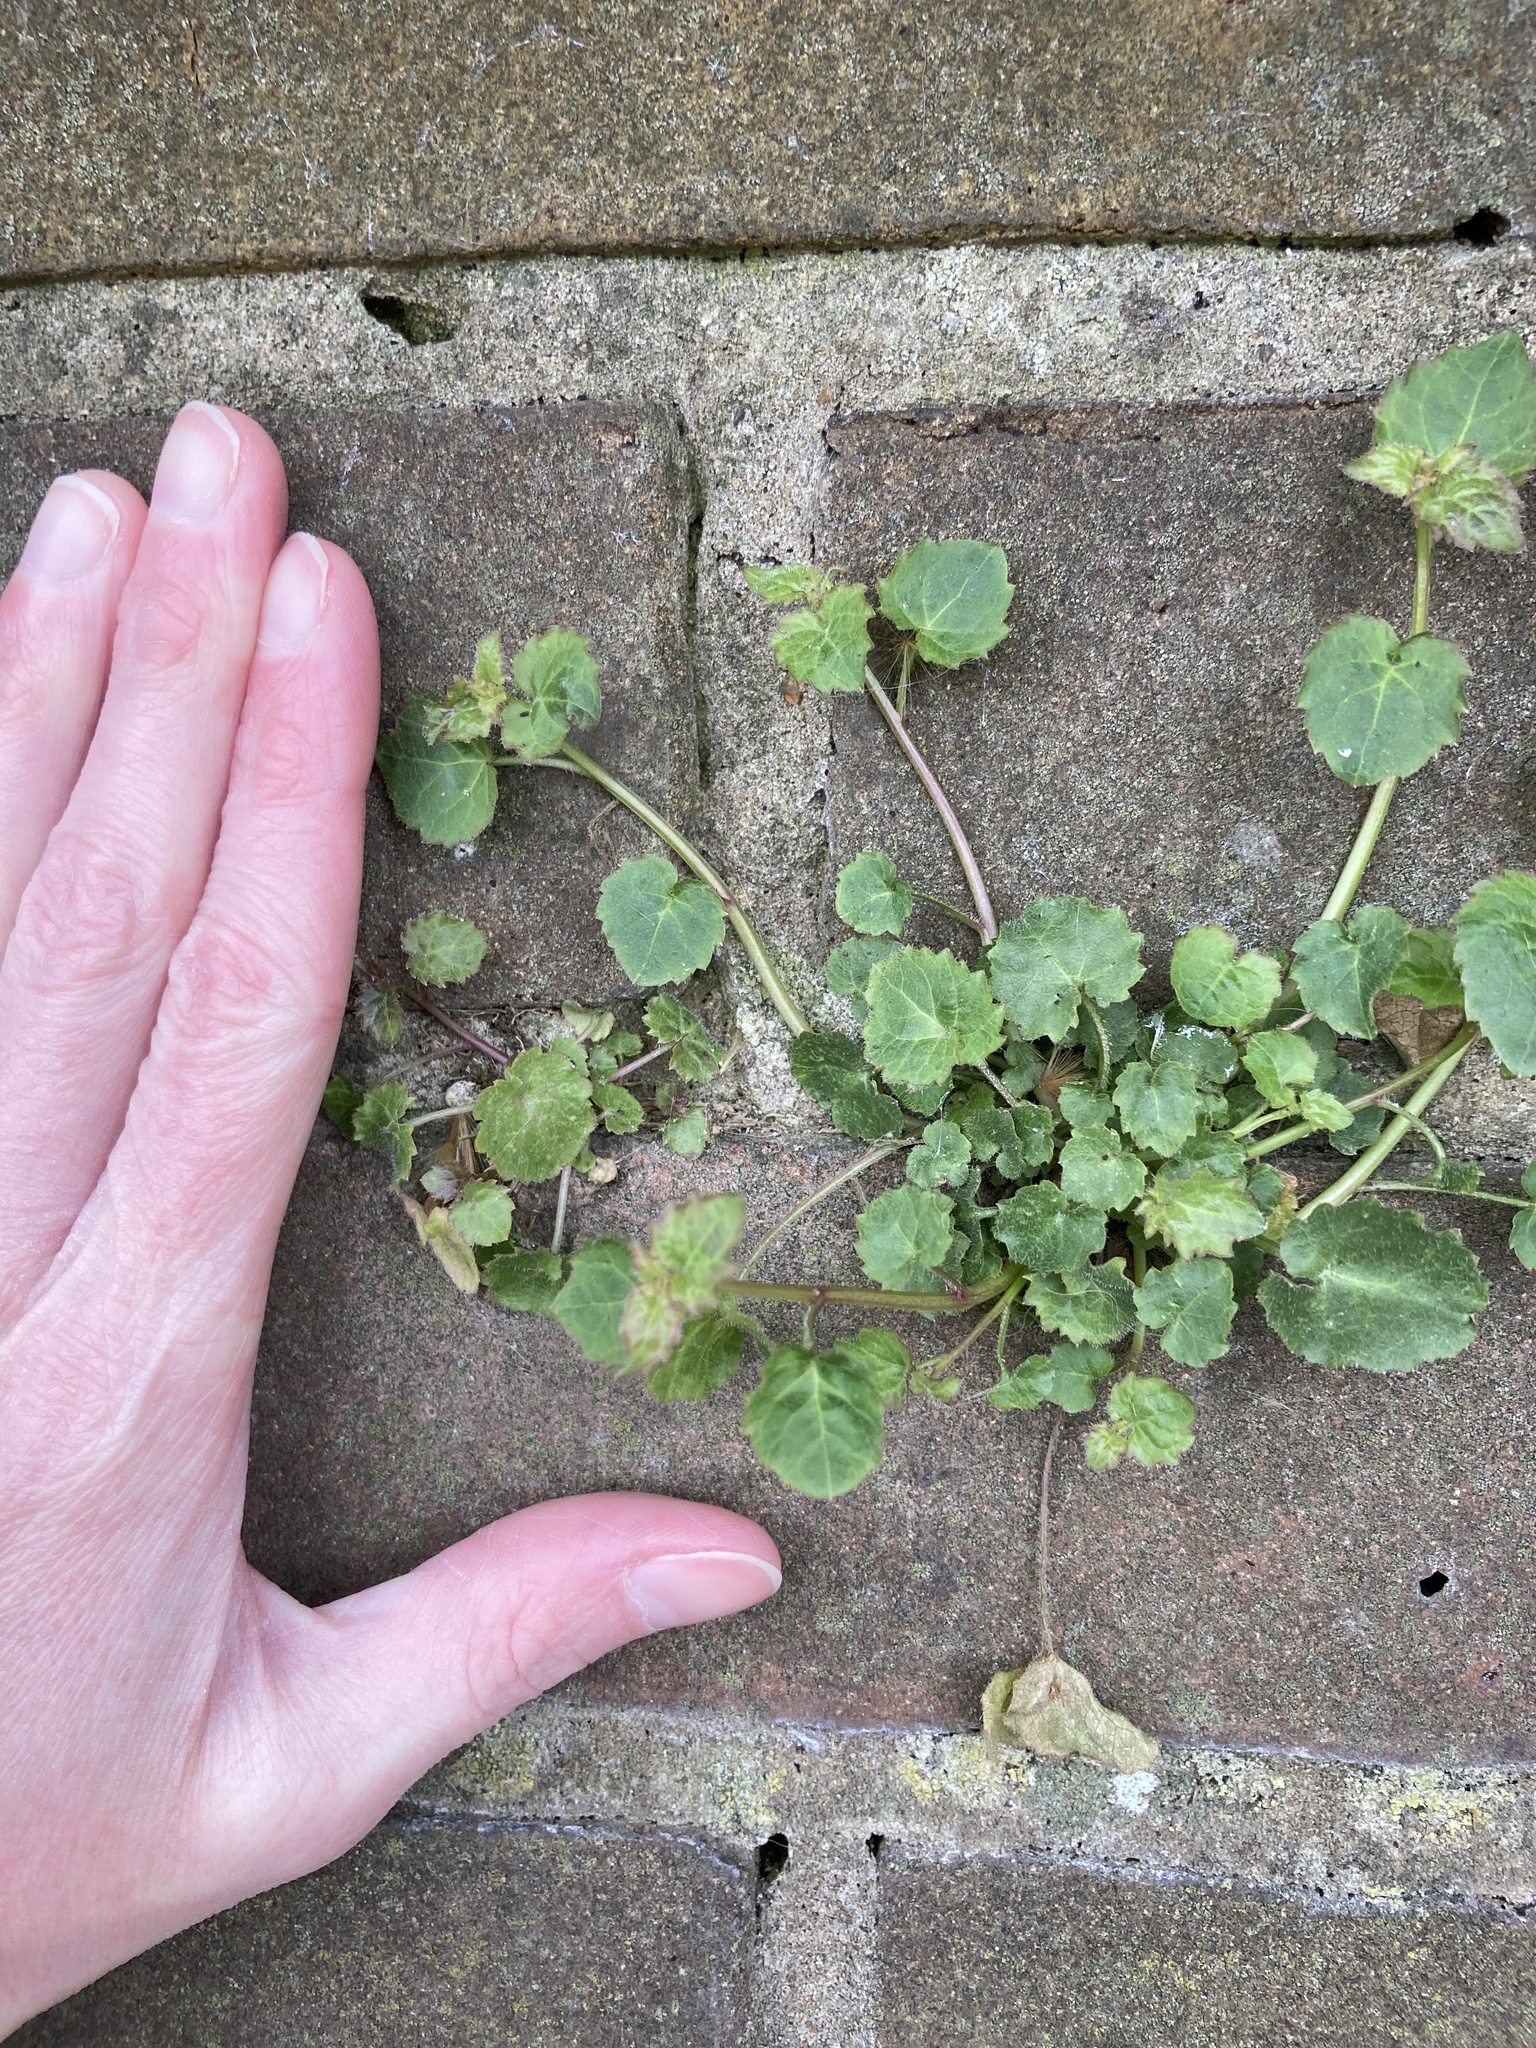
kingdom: Plantae
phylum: Tracheophyta
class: Magnoliopsida
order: Asterales
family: Campanulaceae
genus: Campanula
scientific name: Campanula poscharskyana
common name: Trailing bellflower
